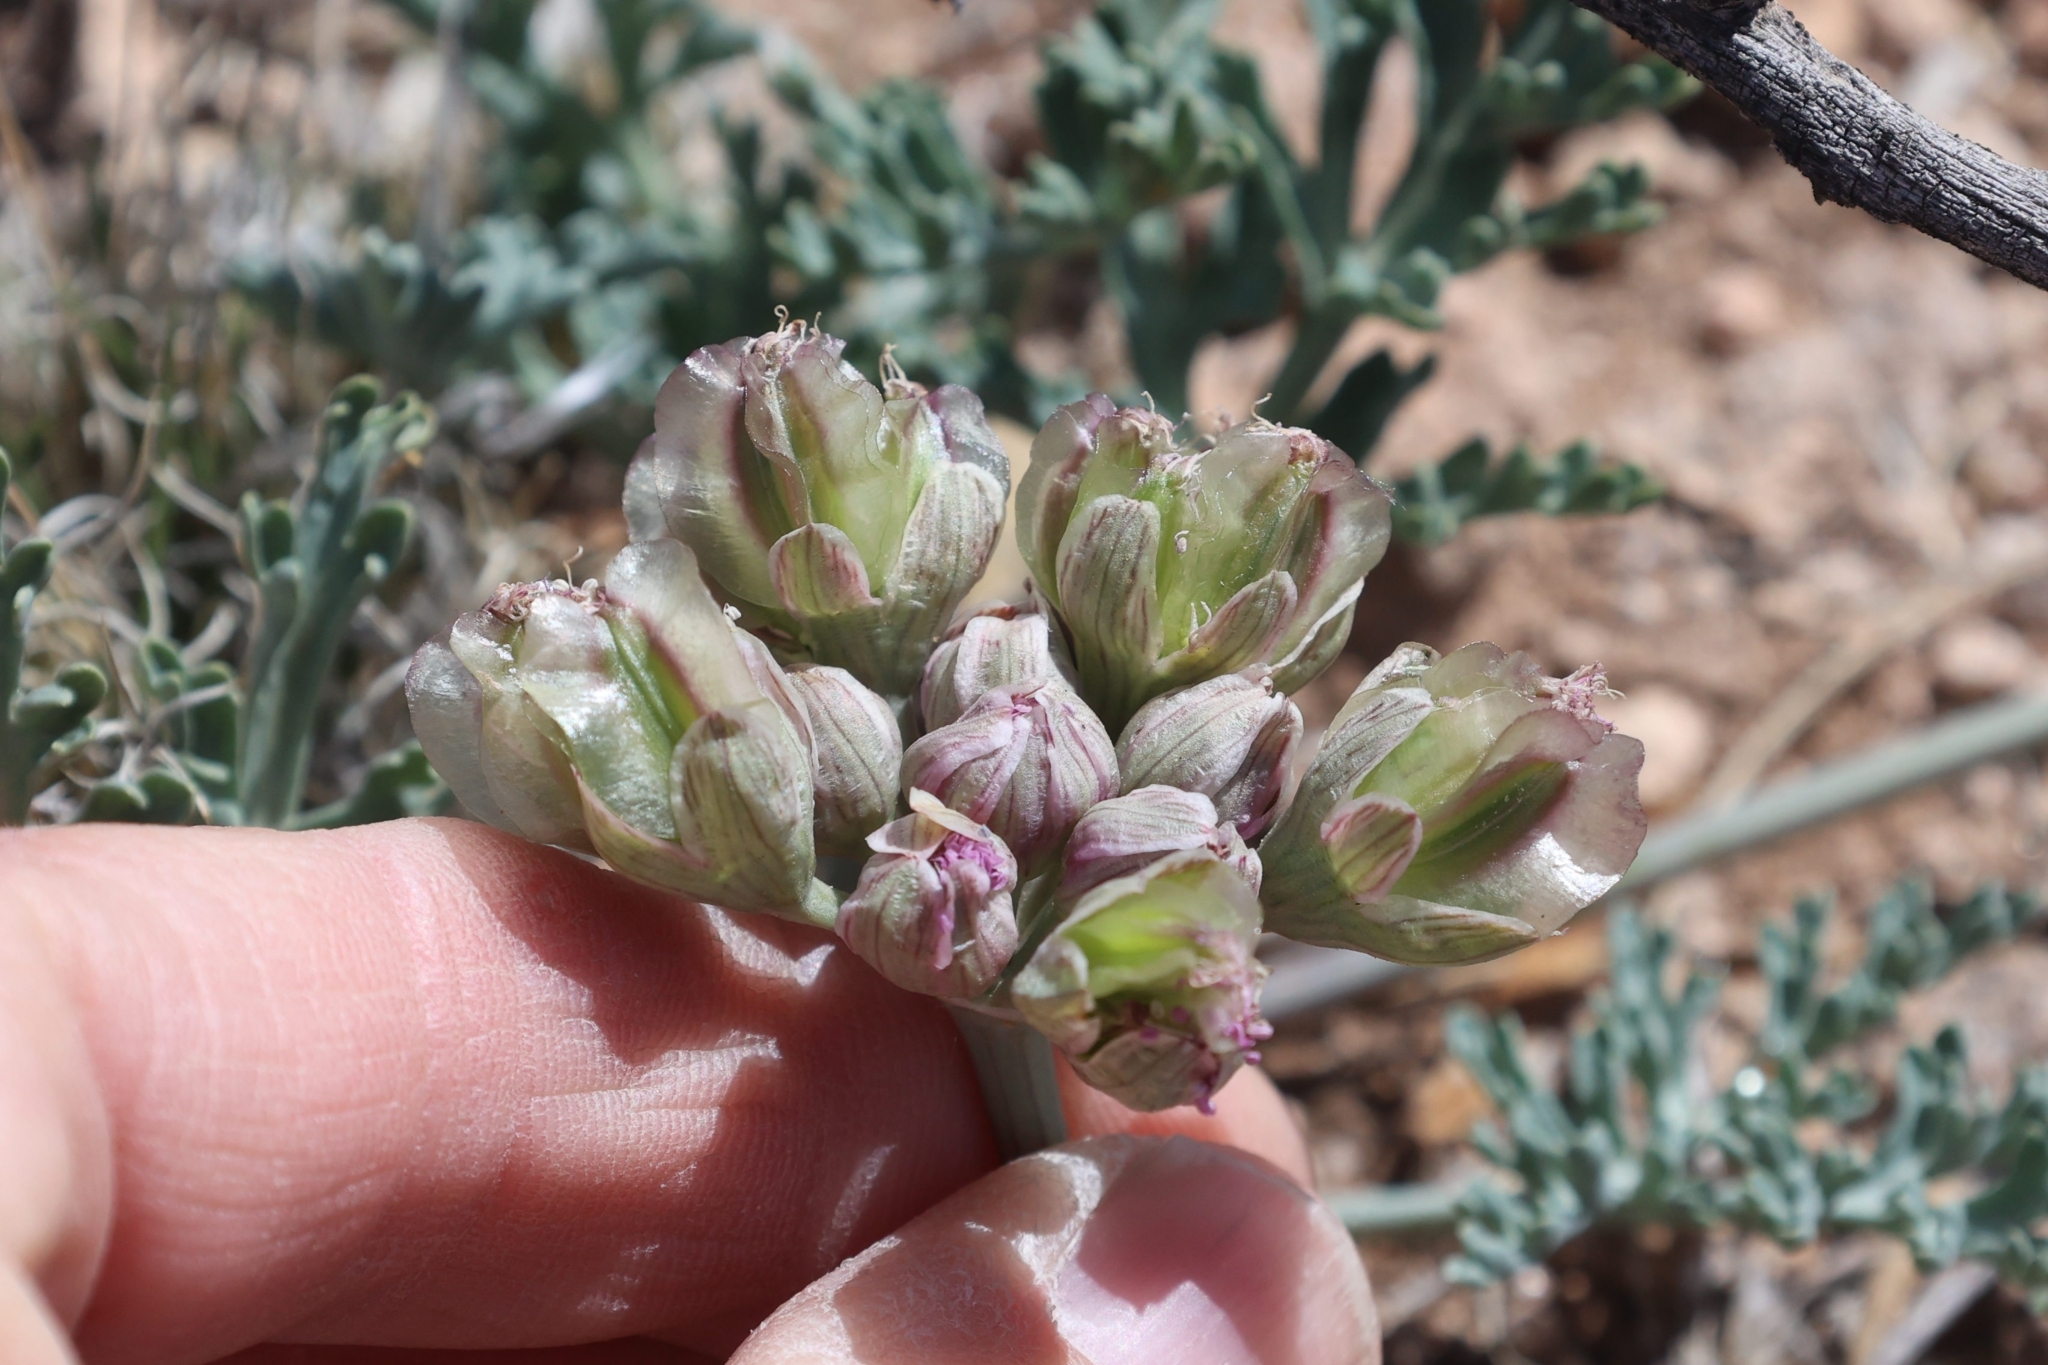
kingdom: Plantae
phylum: Tracheophyta
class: Magnoliopsida
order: Apiales
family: Apiaceae
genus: Vesper
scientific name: Vesper multinervatus
